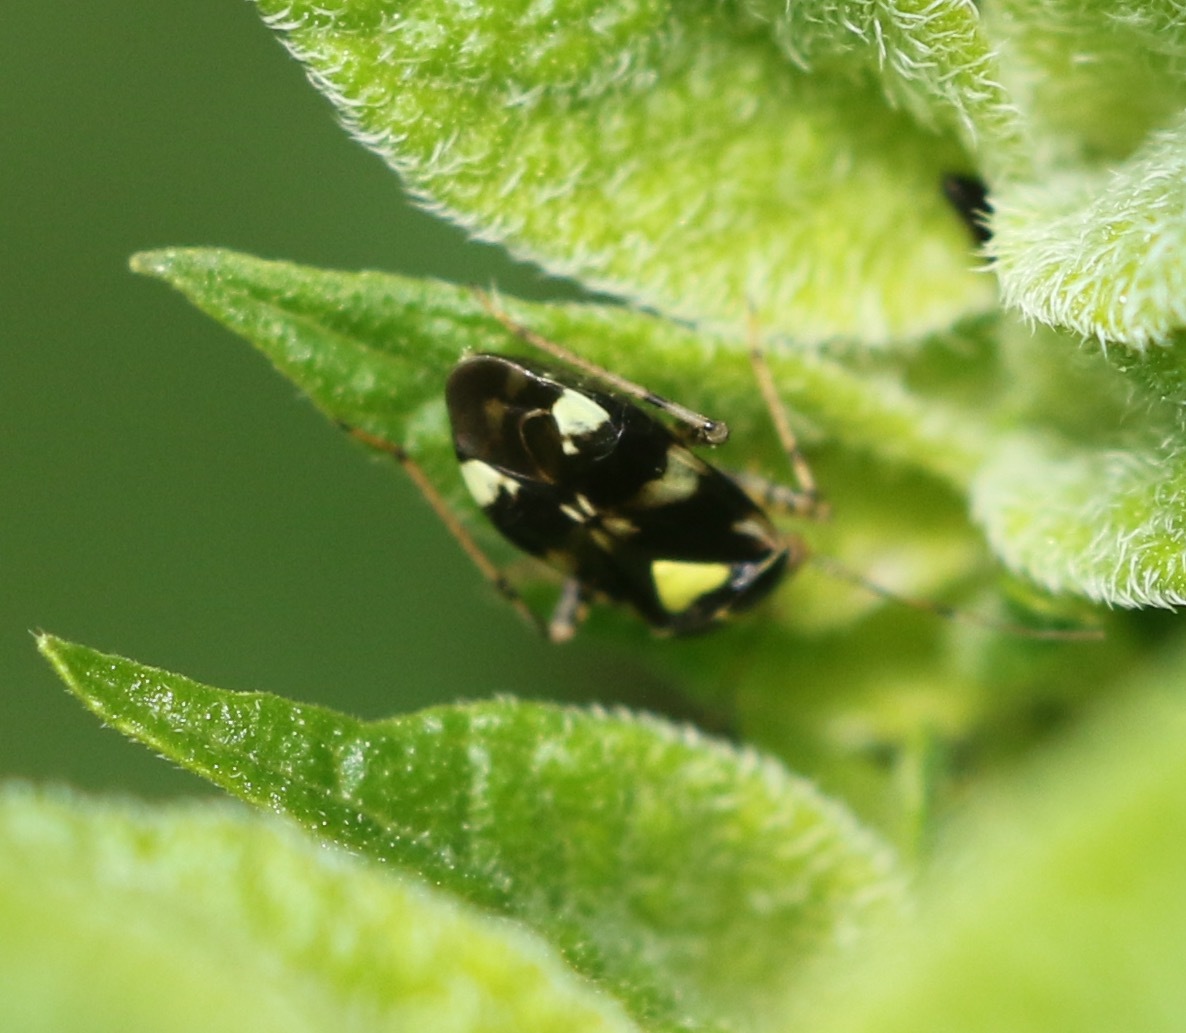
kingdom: Animalia
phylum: Arthropoda
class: Insecta
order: Hemiptera
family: Miridae
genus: Liocoris
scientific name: Liocoris tripustulatus
